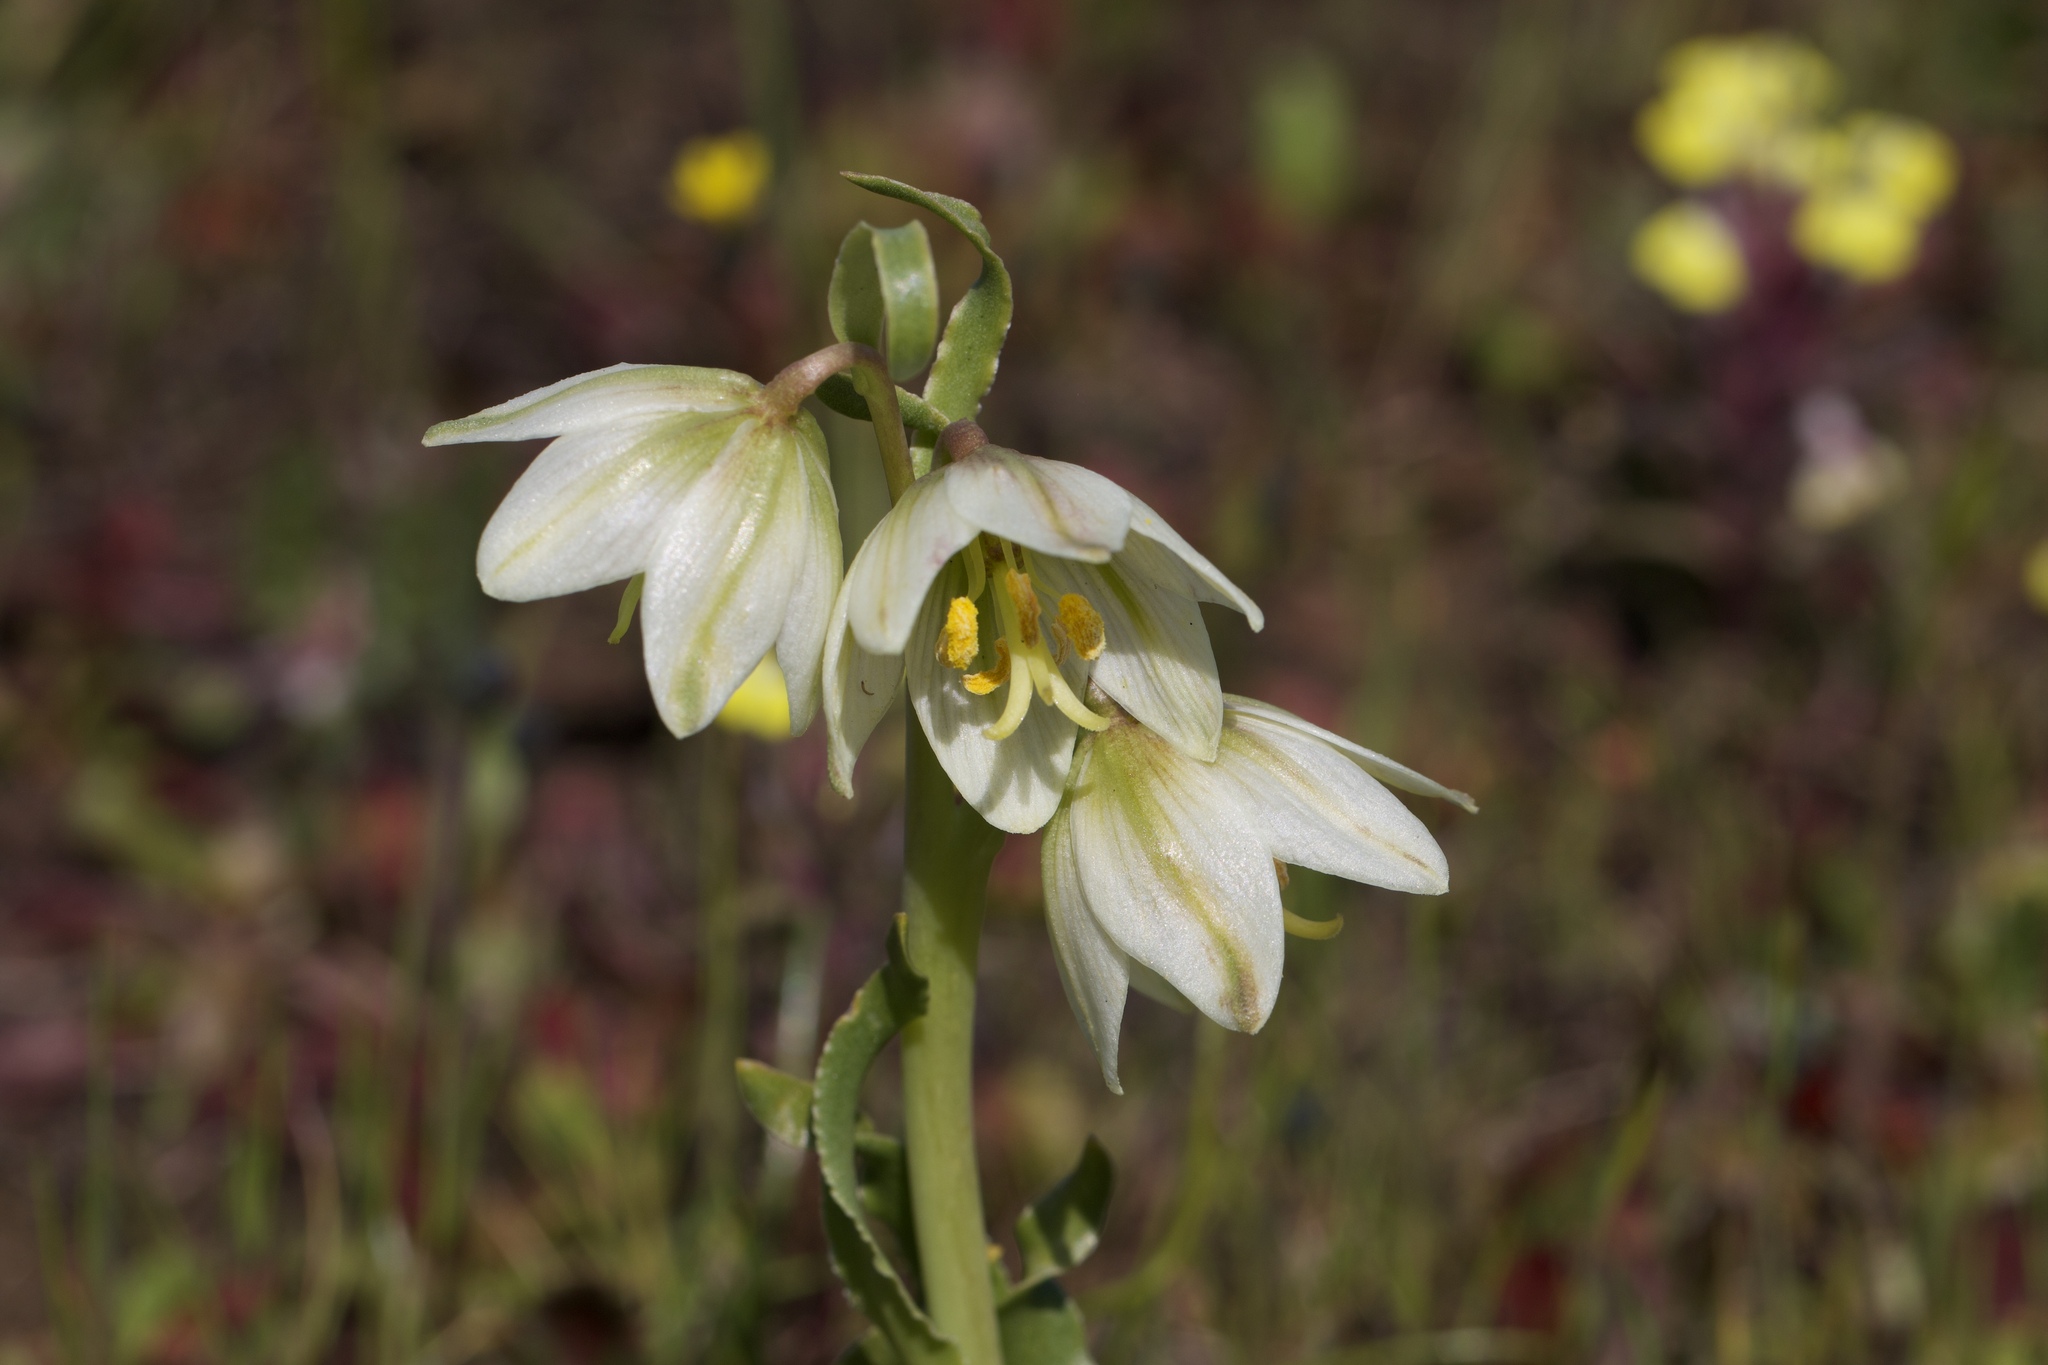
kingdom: Plantae
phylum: Tracheophyta
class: Liliopsida
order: Liliales
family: Liliaceae
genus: Fritillaria
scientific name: Fritillaria liliacea
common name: Fragrant fritillary
